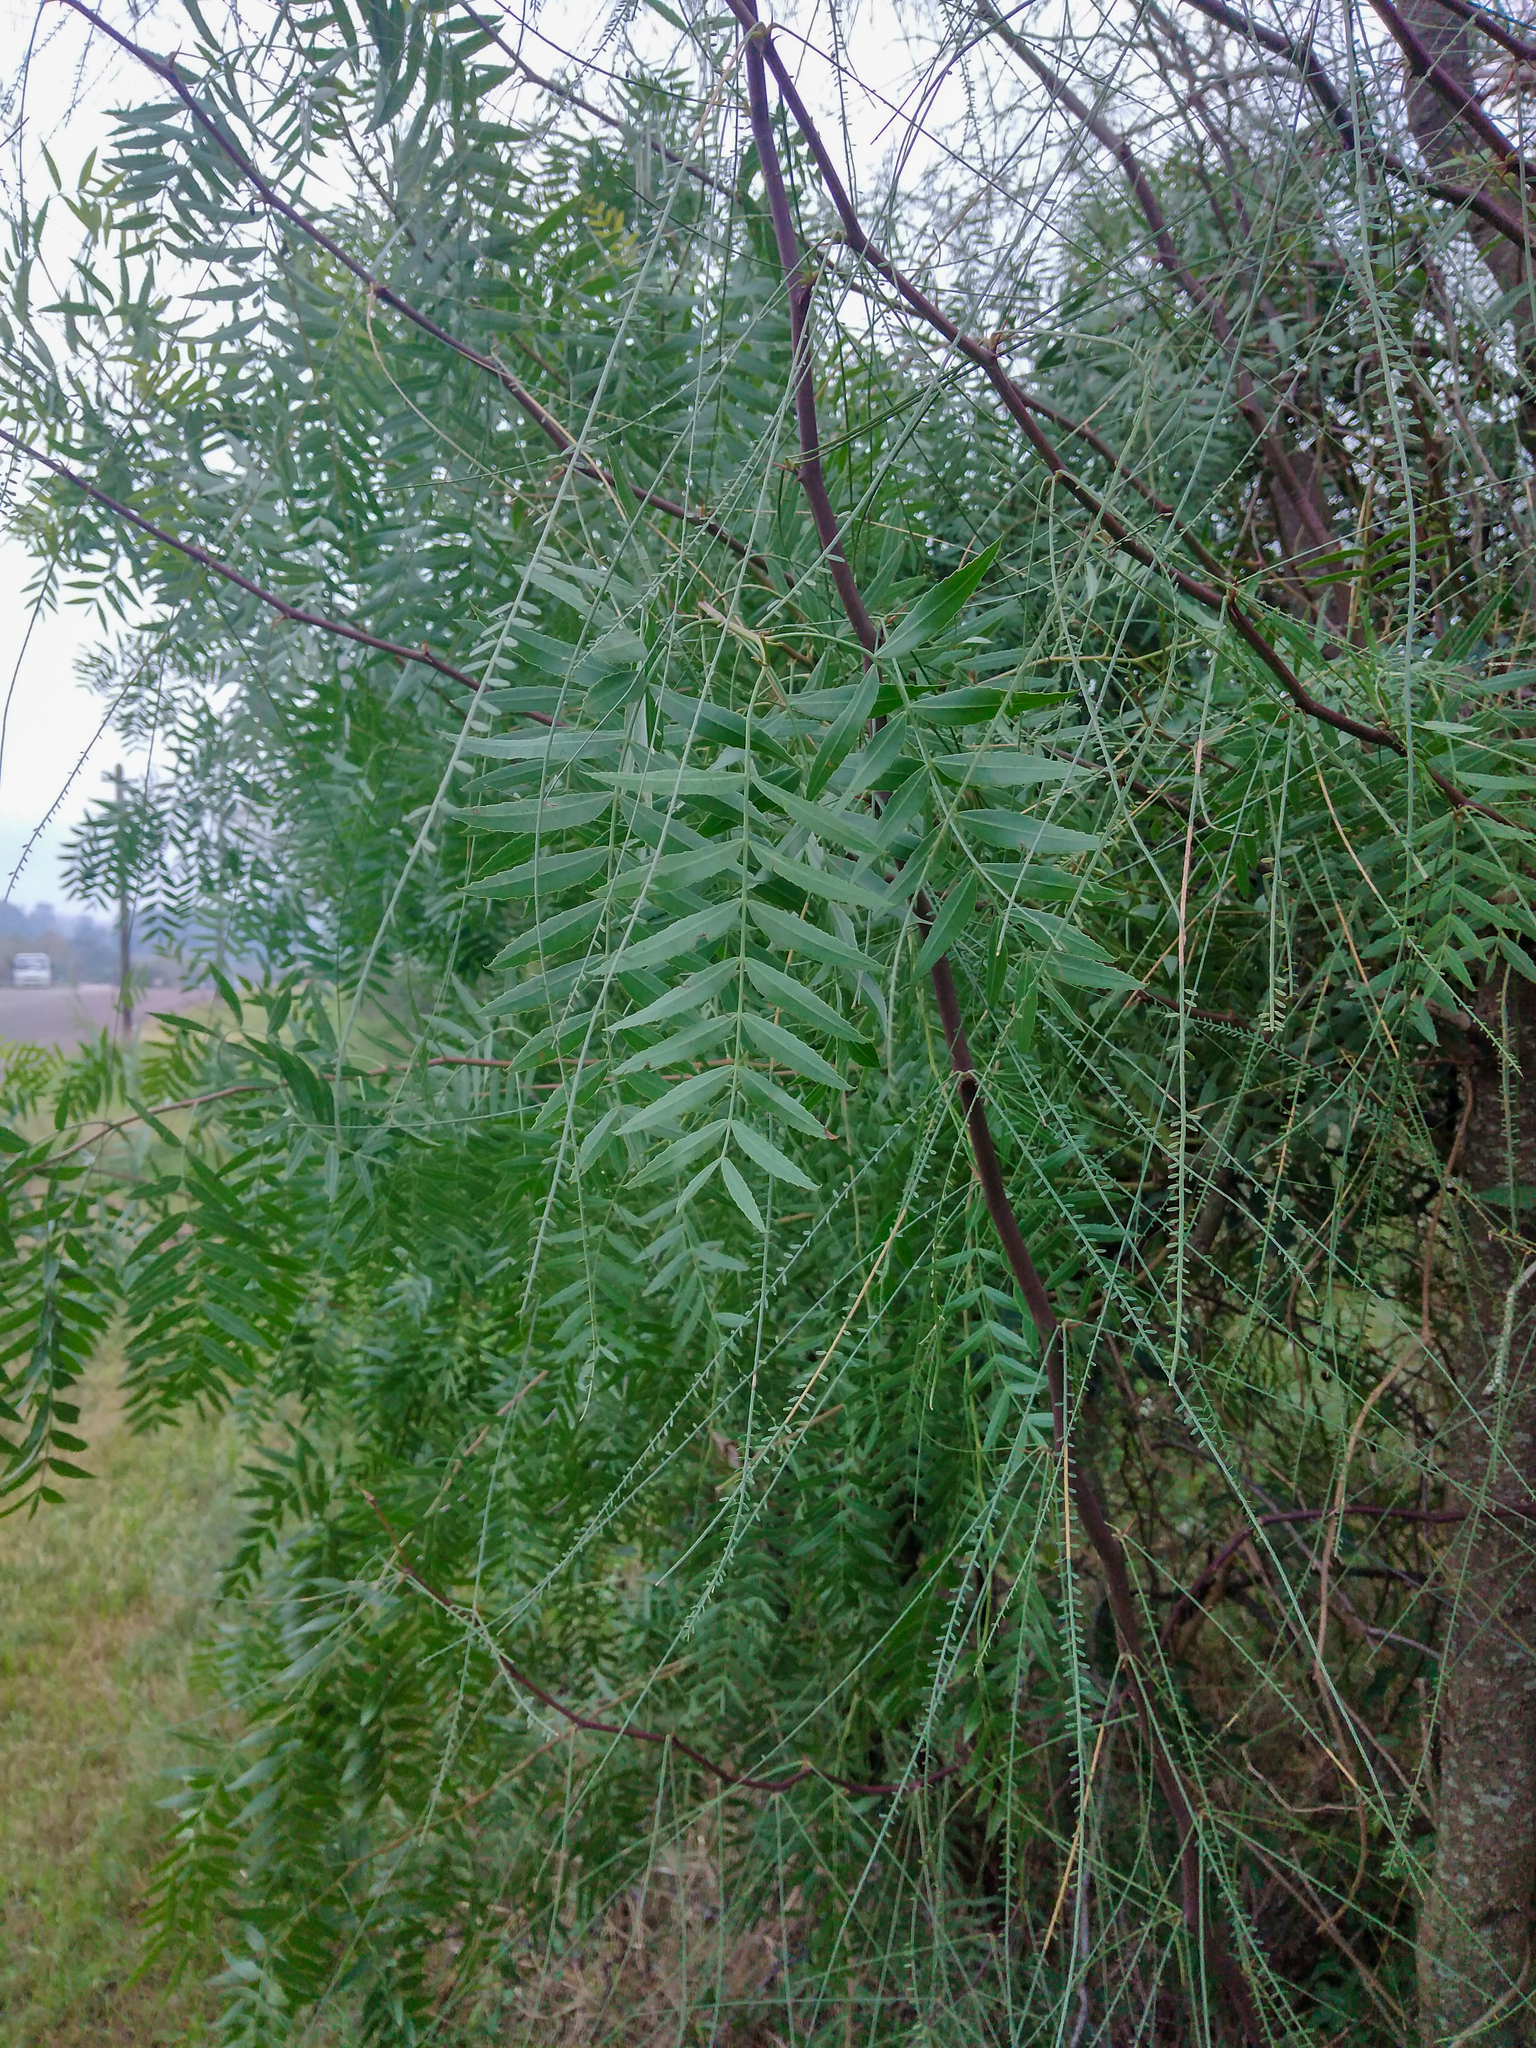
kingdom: Plantae
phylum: Tracheophyta
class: Magnoliopsida
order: Sapindales
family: Anacardiaceae
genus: Schinus
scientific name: Schinus molle
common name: Peruvian peppertree
